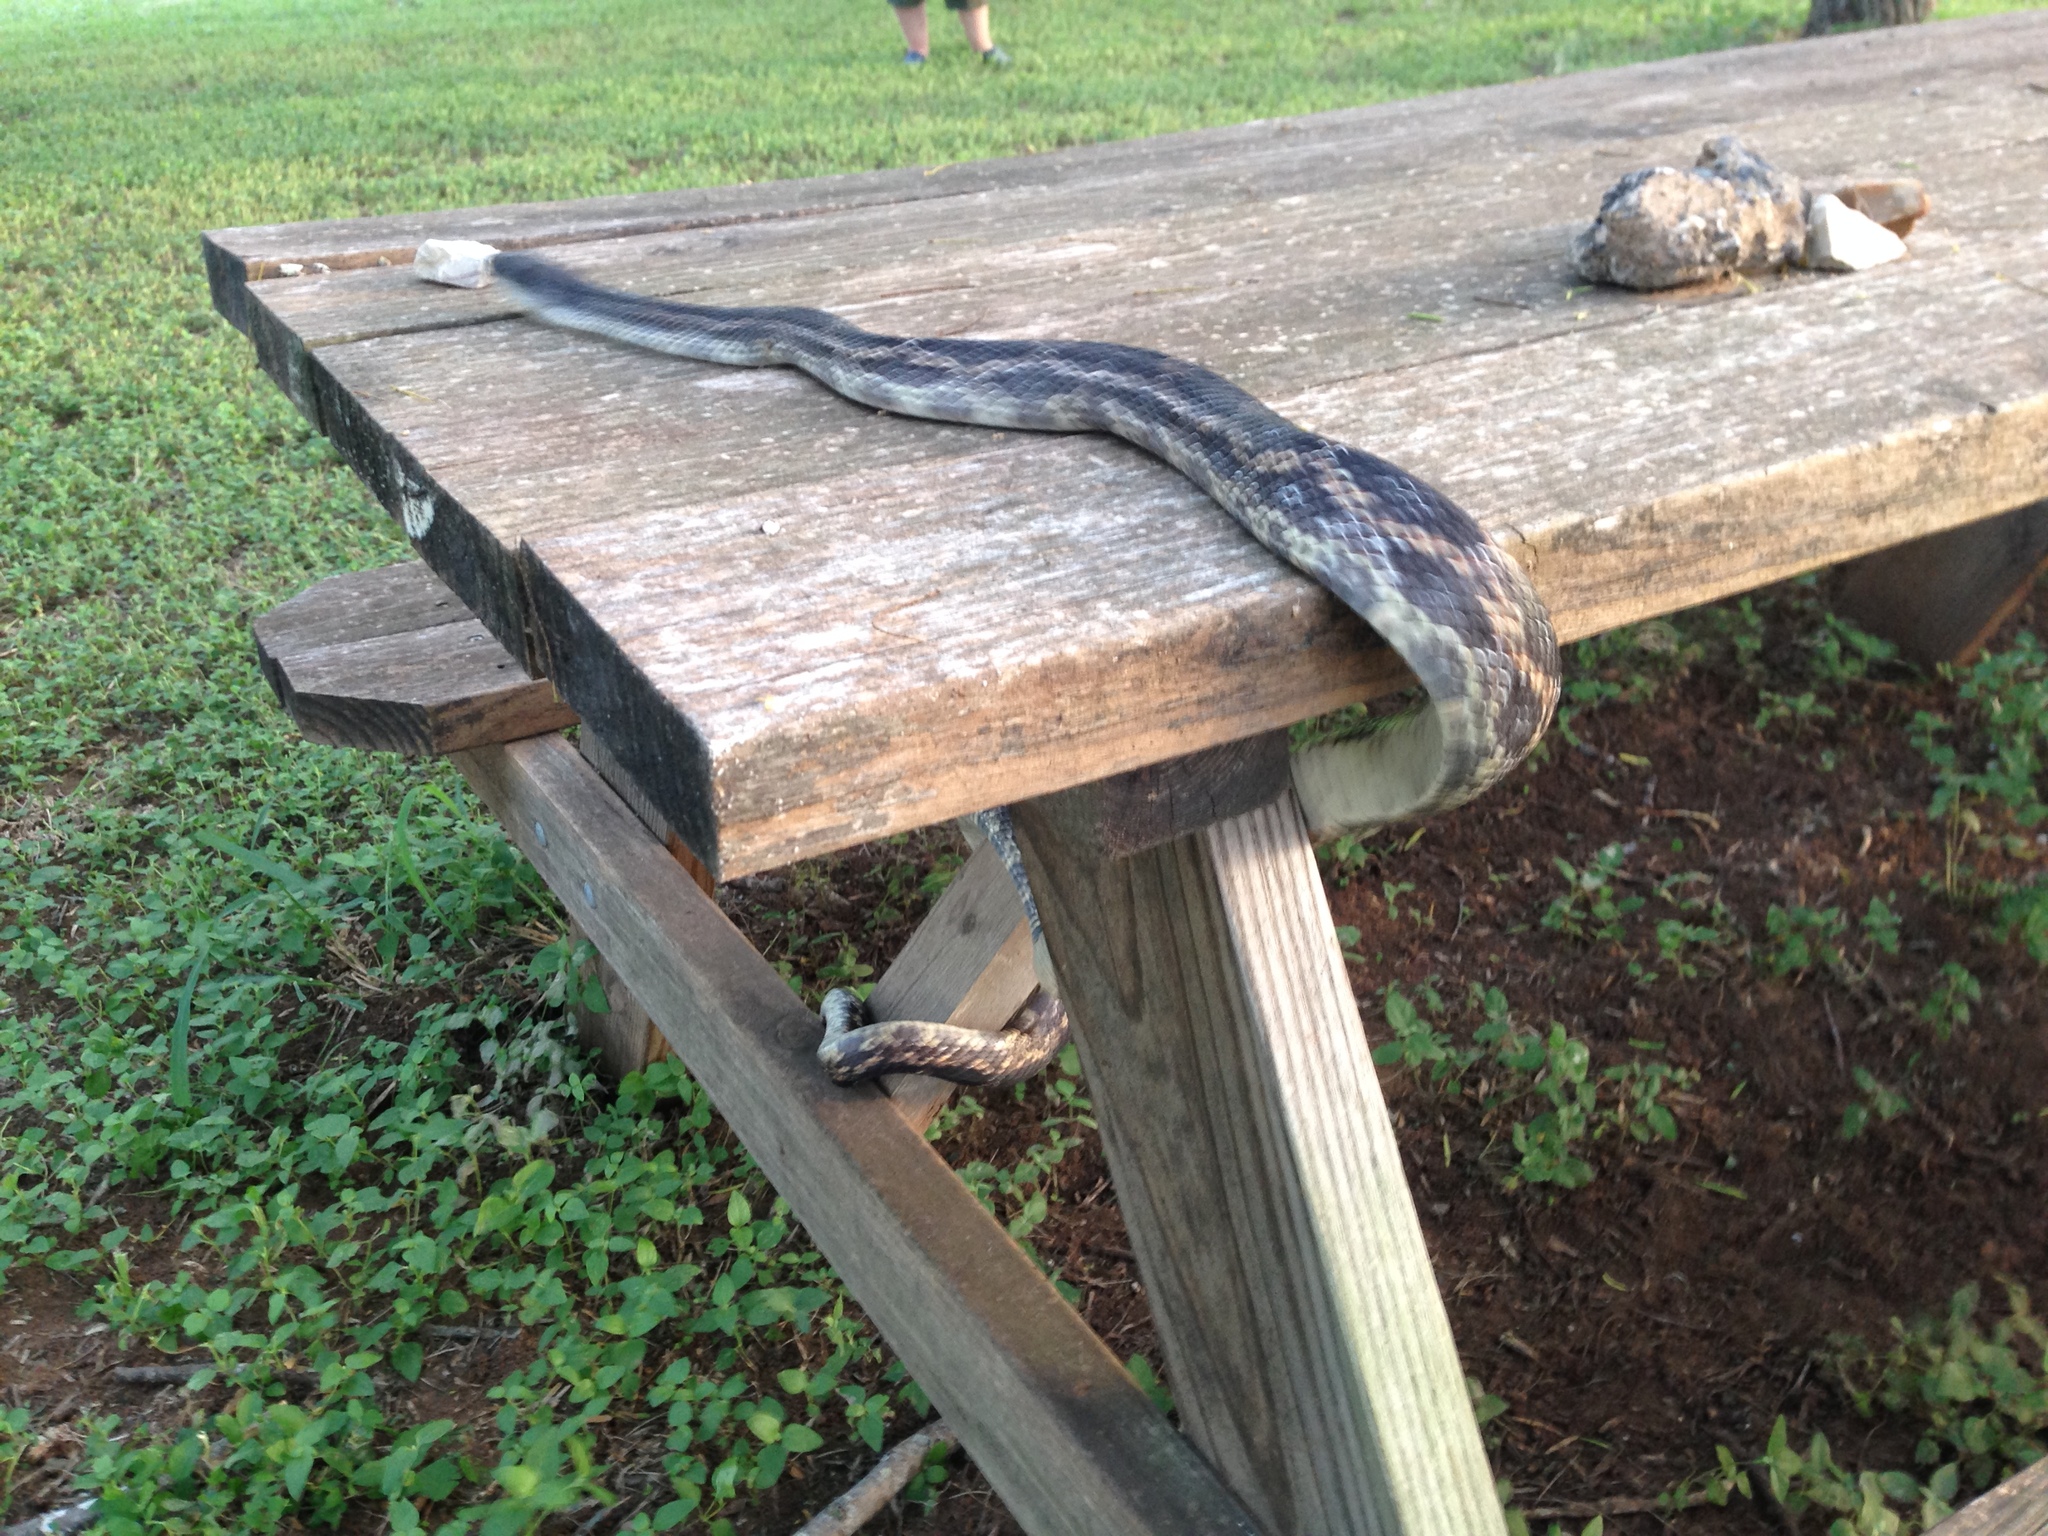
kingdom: Animalia
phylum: Chordata
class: Squamata
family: Colubridae
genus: Pantherophis
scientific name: Pantherophis obsoletus
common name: Black rat snake
